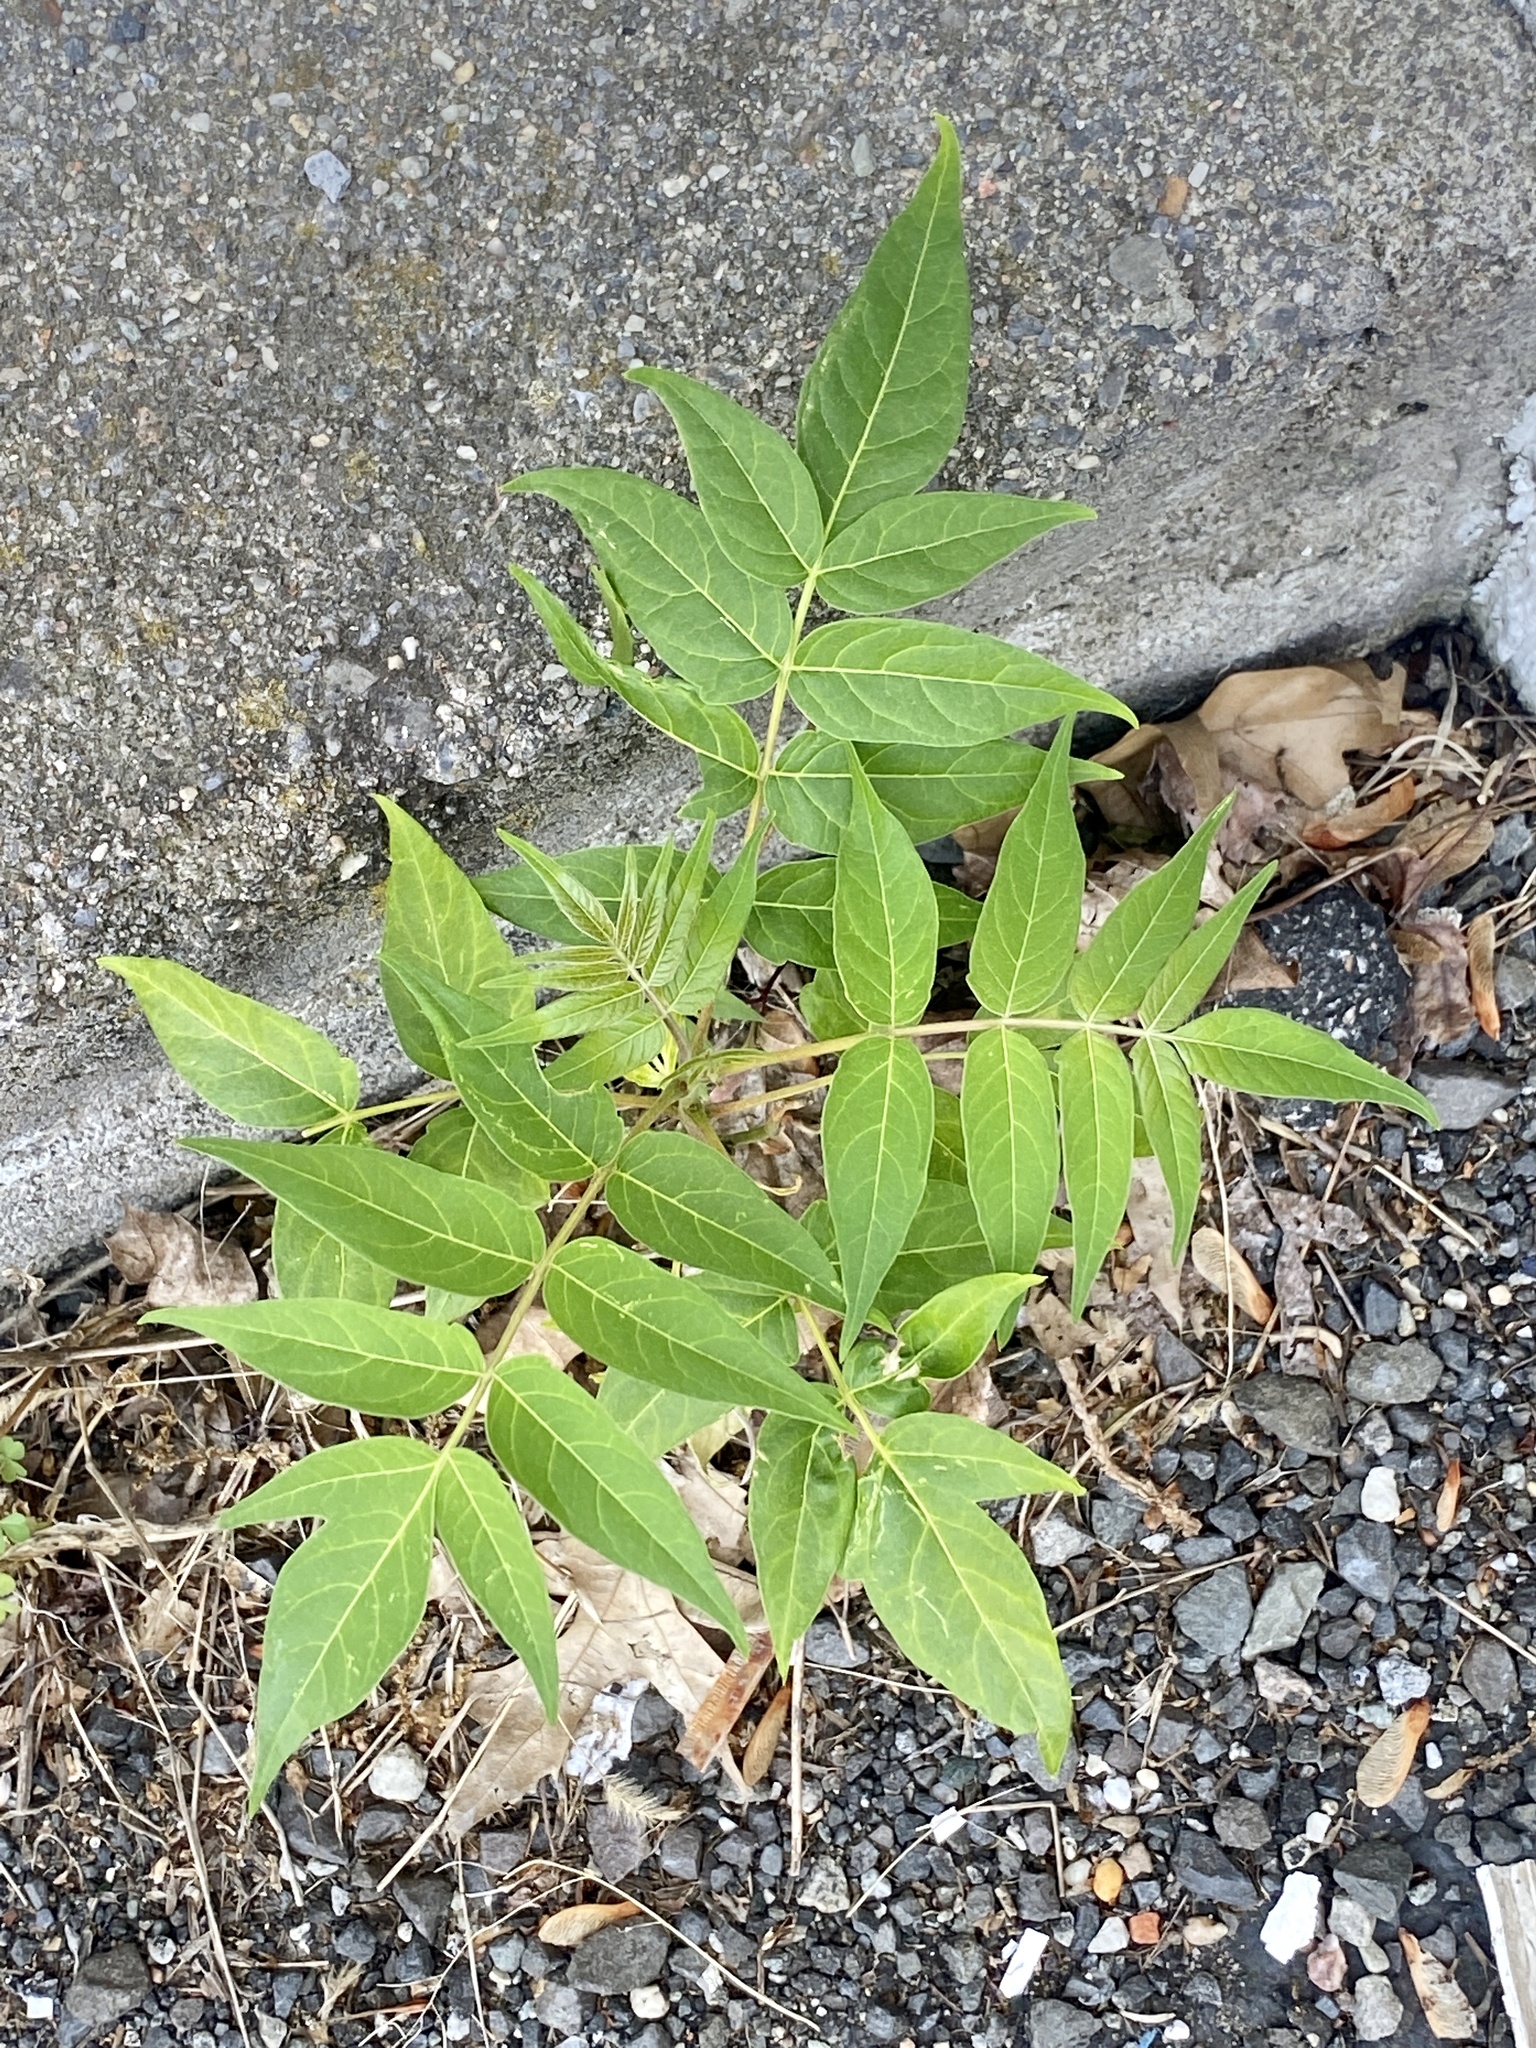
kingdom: Plantae
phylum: Tracheophyta
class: Magnoliopsida
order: Sapindales
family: Simaroubaceae
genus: Ailanthus
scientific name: Ailanthus altissima
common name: Tree-of-heaven
